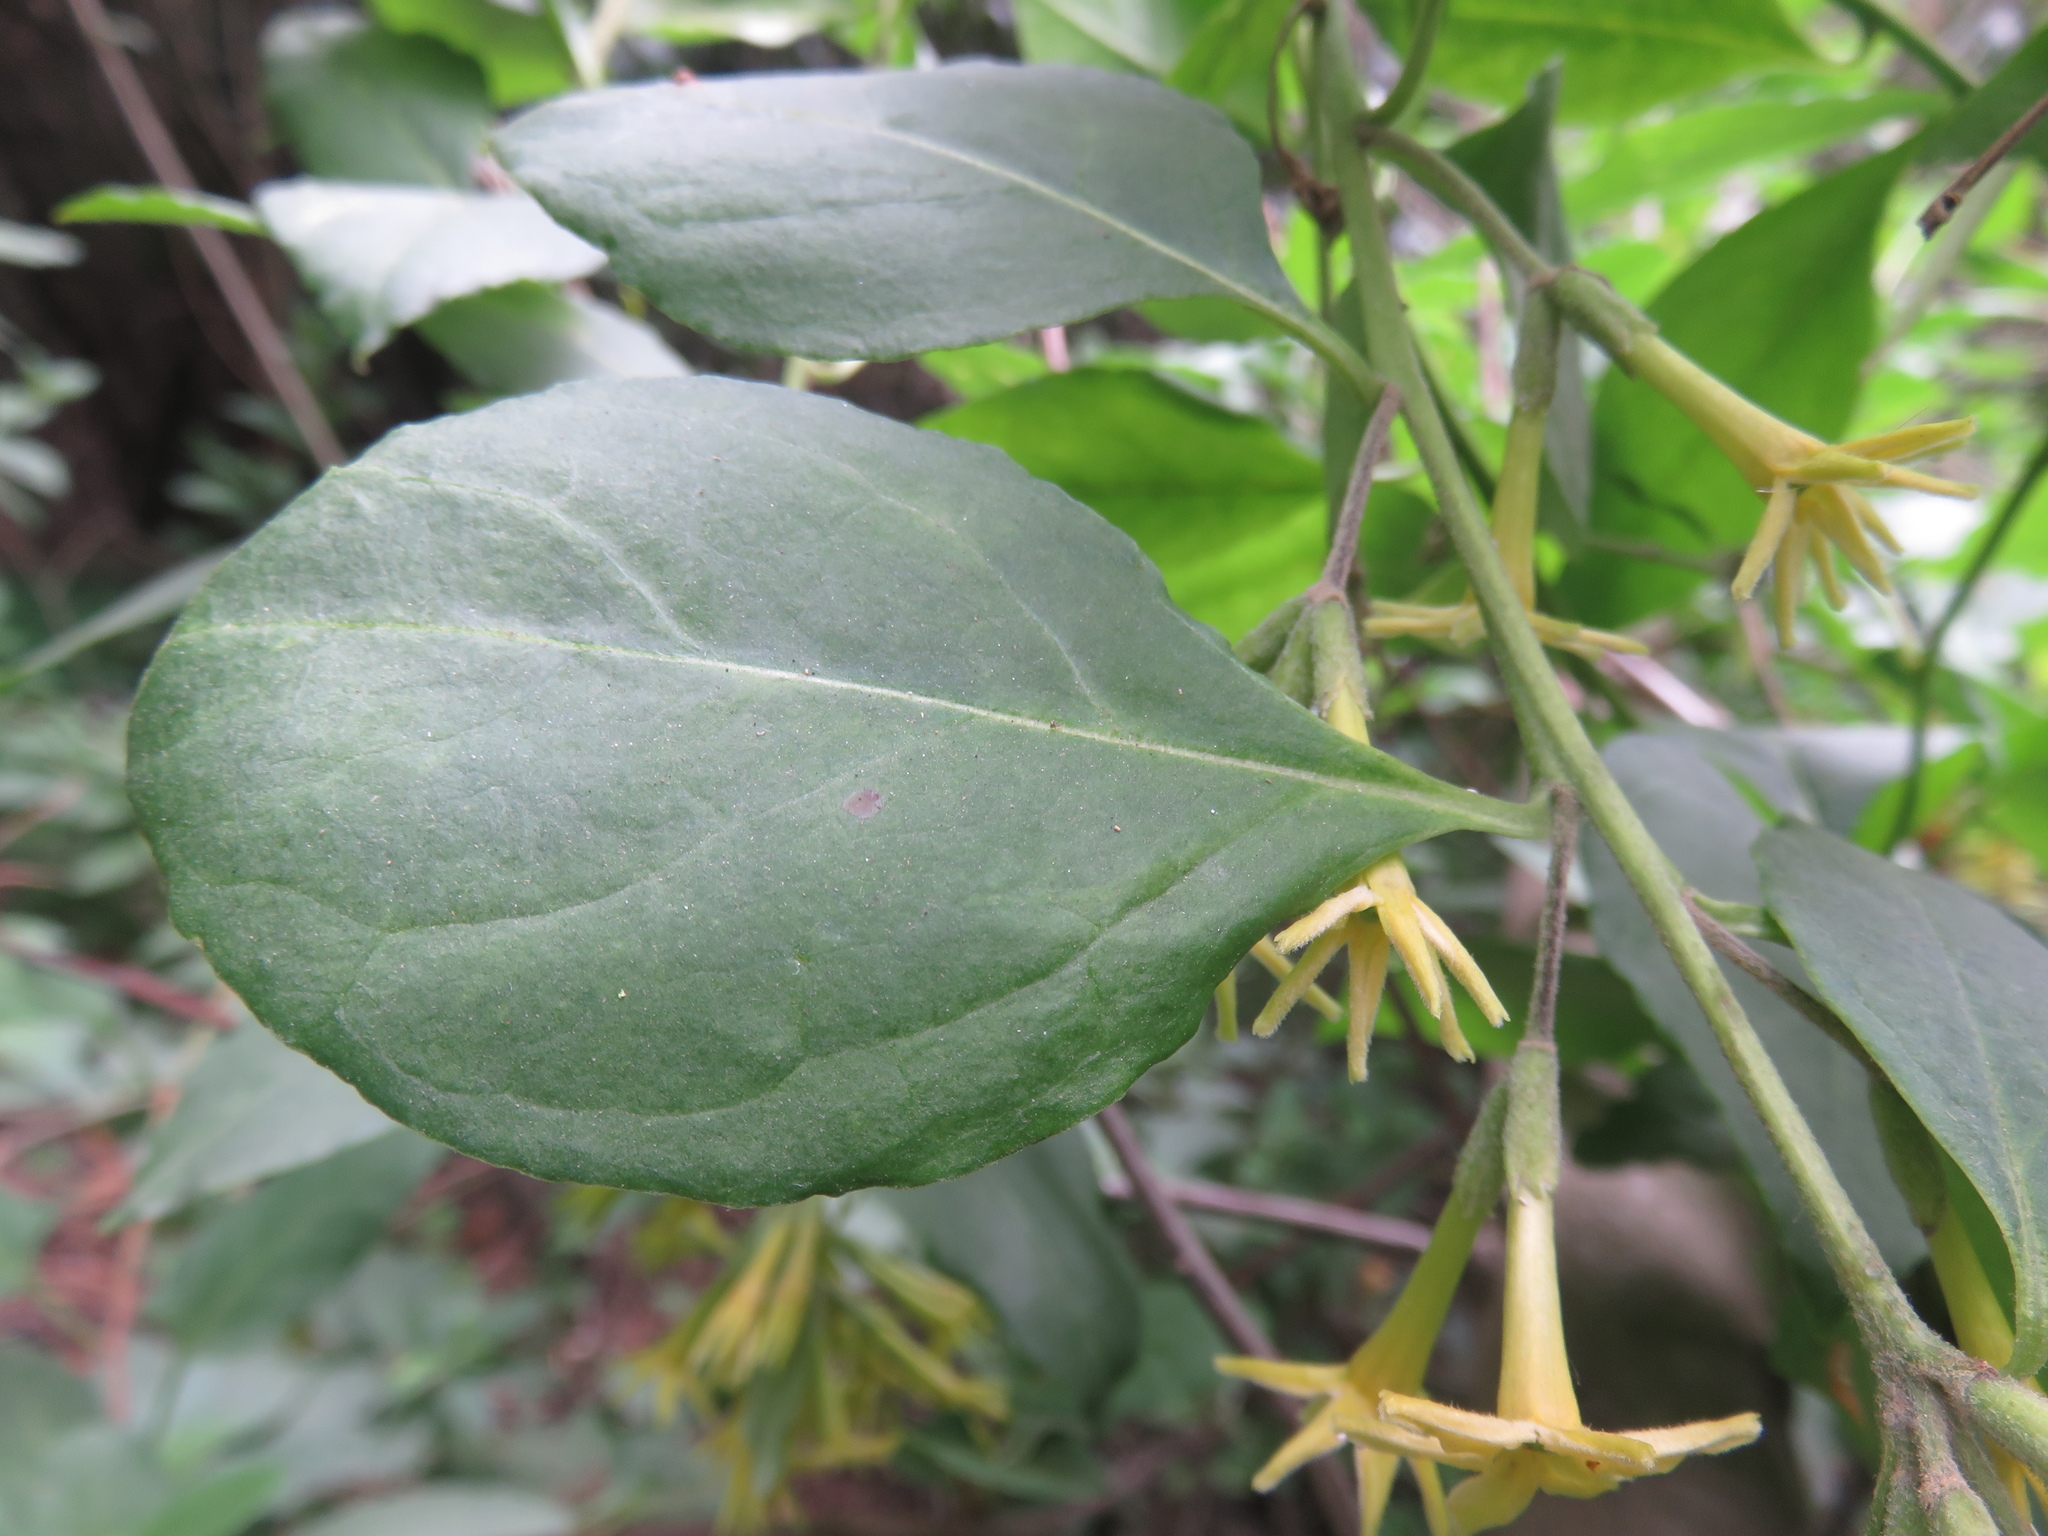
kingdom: Plantae
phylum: Tracheophyta
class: Magnoliopsida
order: Solanales
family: Solanaceae
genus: Cestrum
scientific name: Cestrum parqui
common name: Chilean cestrum
